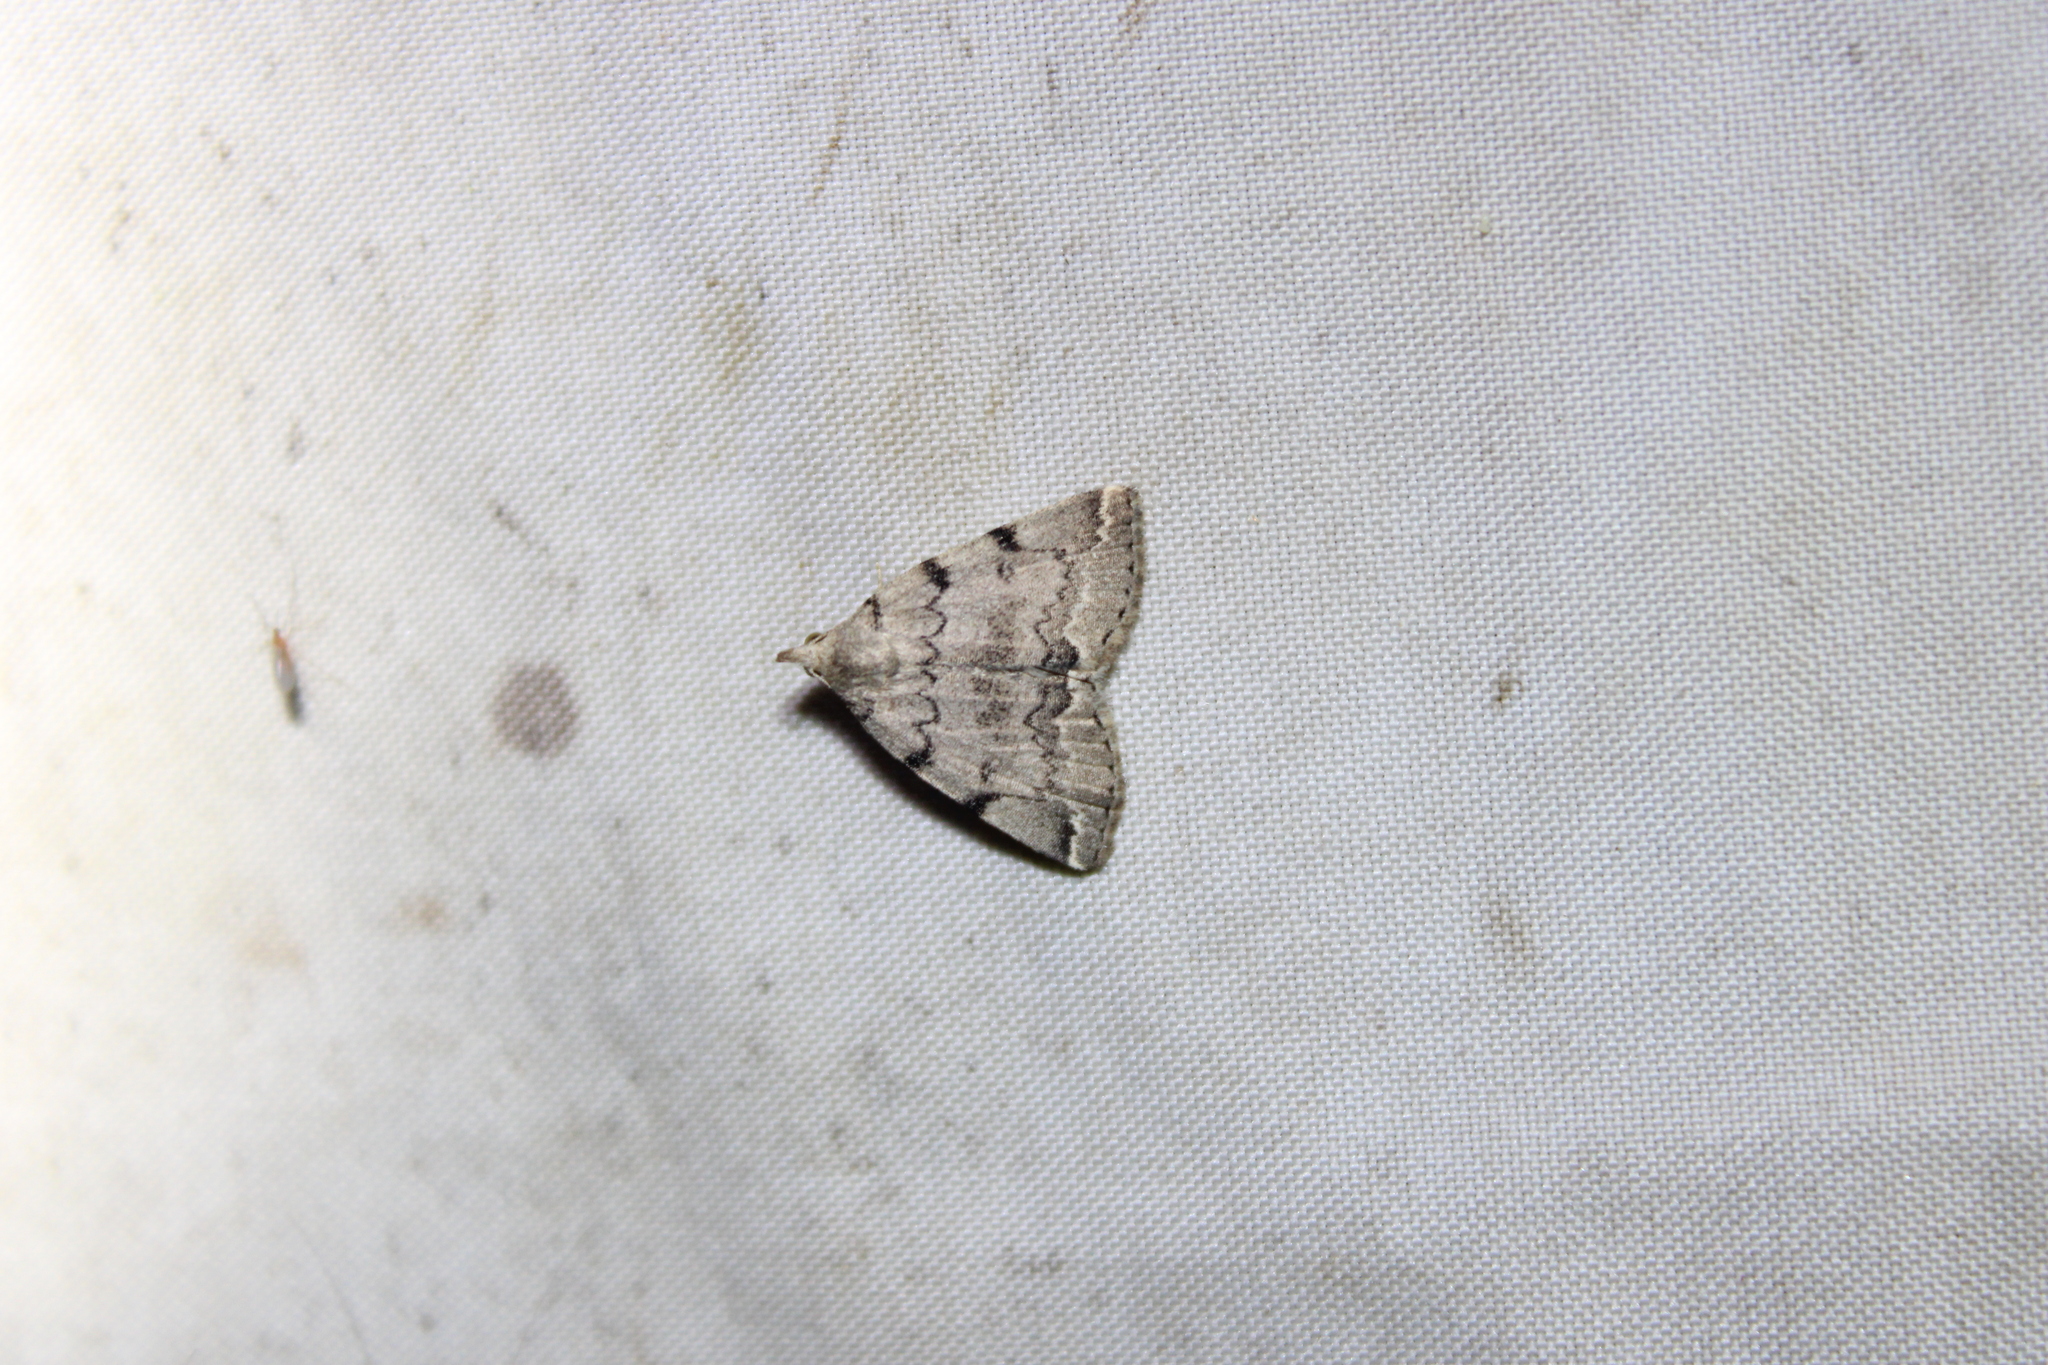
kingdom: Animalia
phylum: Arthropoda
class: Insecta
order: Lepidoptera
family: Erebidae
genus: Zanclognatha
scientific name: Zanclognatha theralis
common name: Flagged fan-foot
